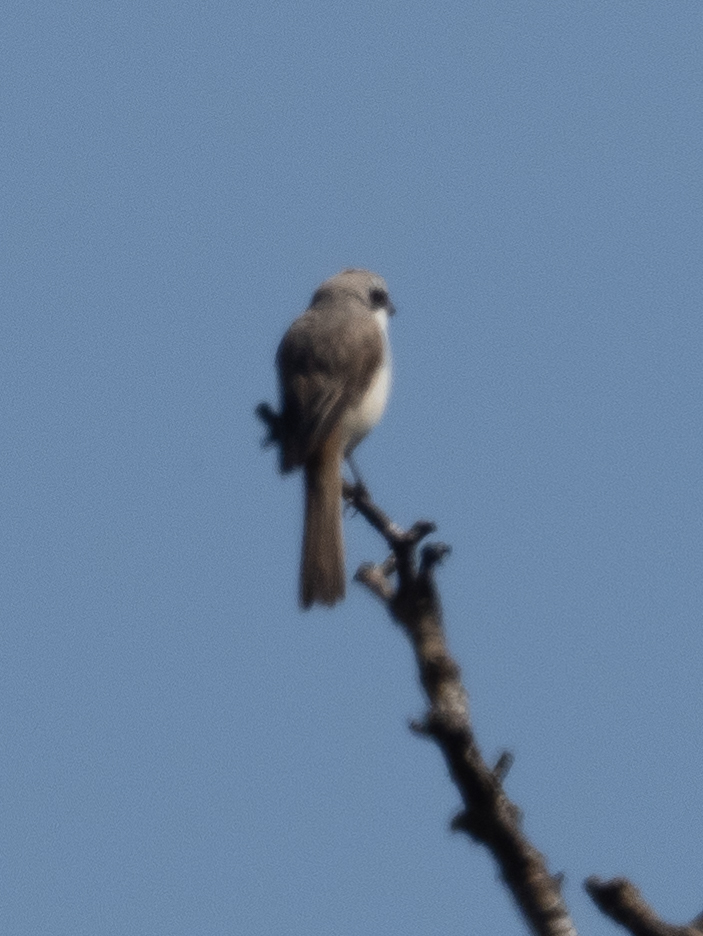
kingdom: Animalia
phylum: Chordata
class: Aves
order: Passeriformes
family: Laniidae
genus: Lanius
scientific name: Lanius cristatus
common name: Brown shrike
